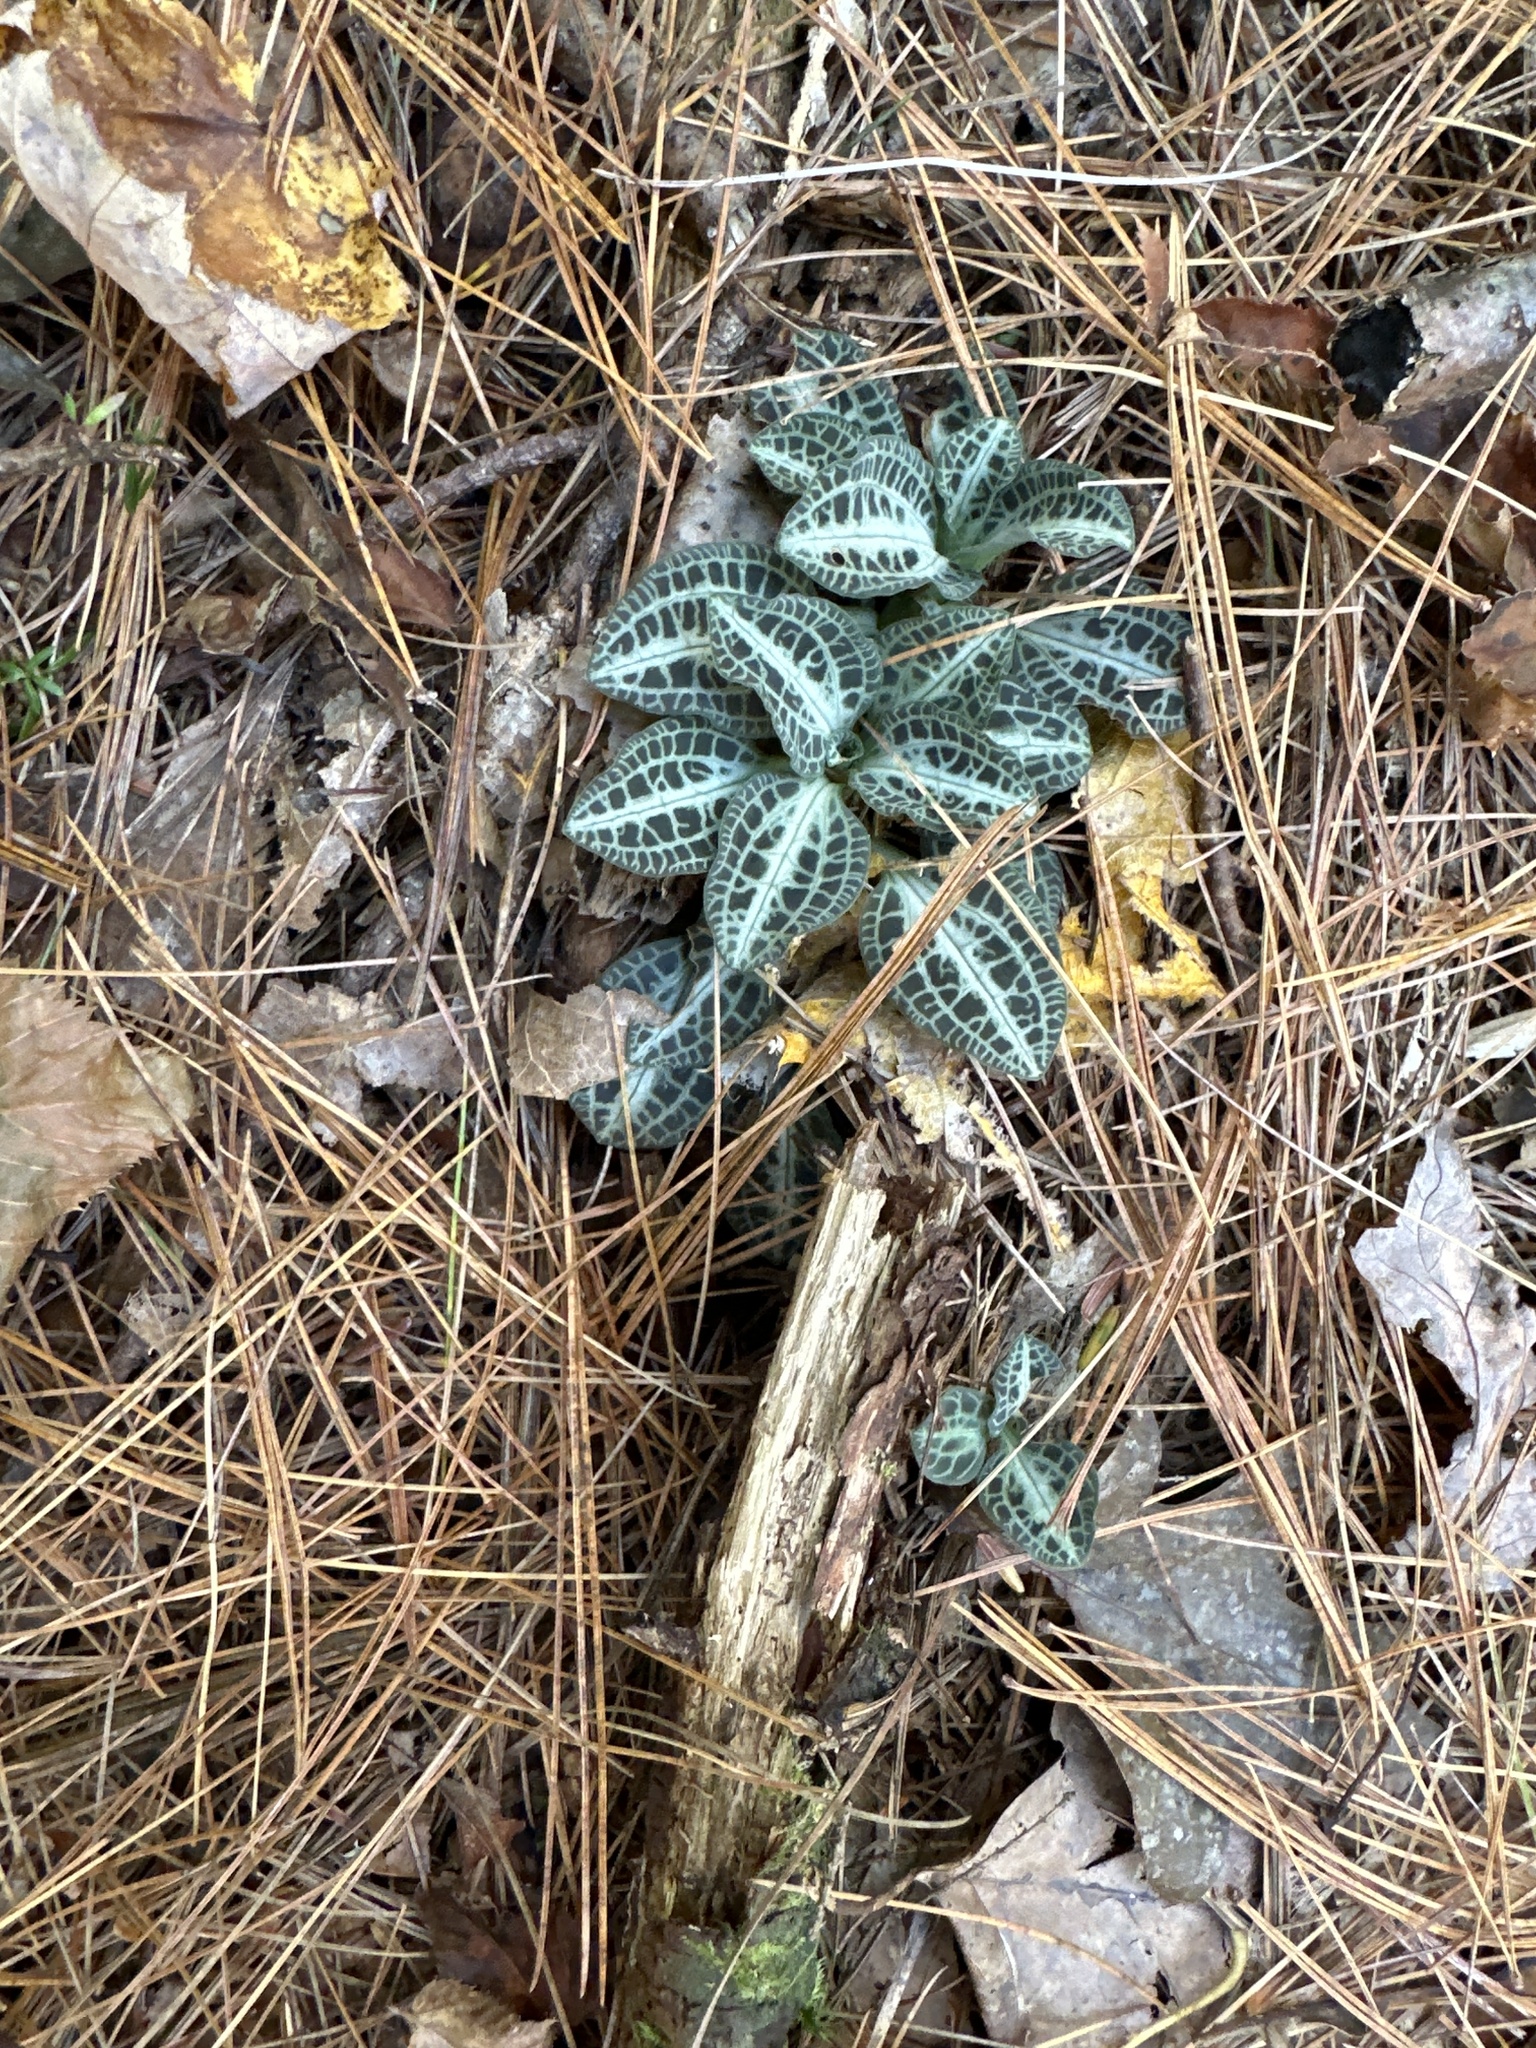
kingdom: Plantae
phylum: Tracheophyta
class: Liliopsida
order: Asparagales
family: Orchidaceae
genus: Goodyera
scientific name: Goodyera pubescens
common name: Downy rattlesnake-plantain
